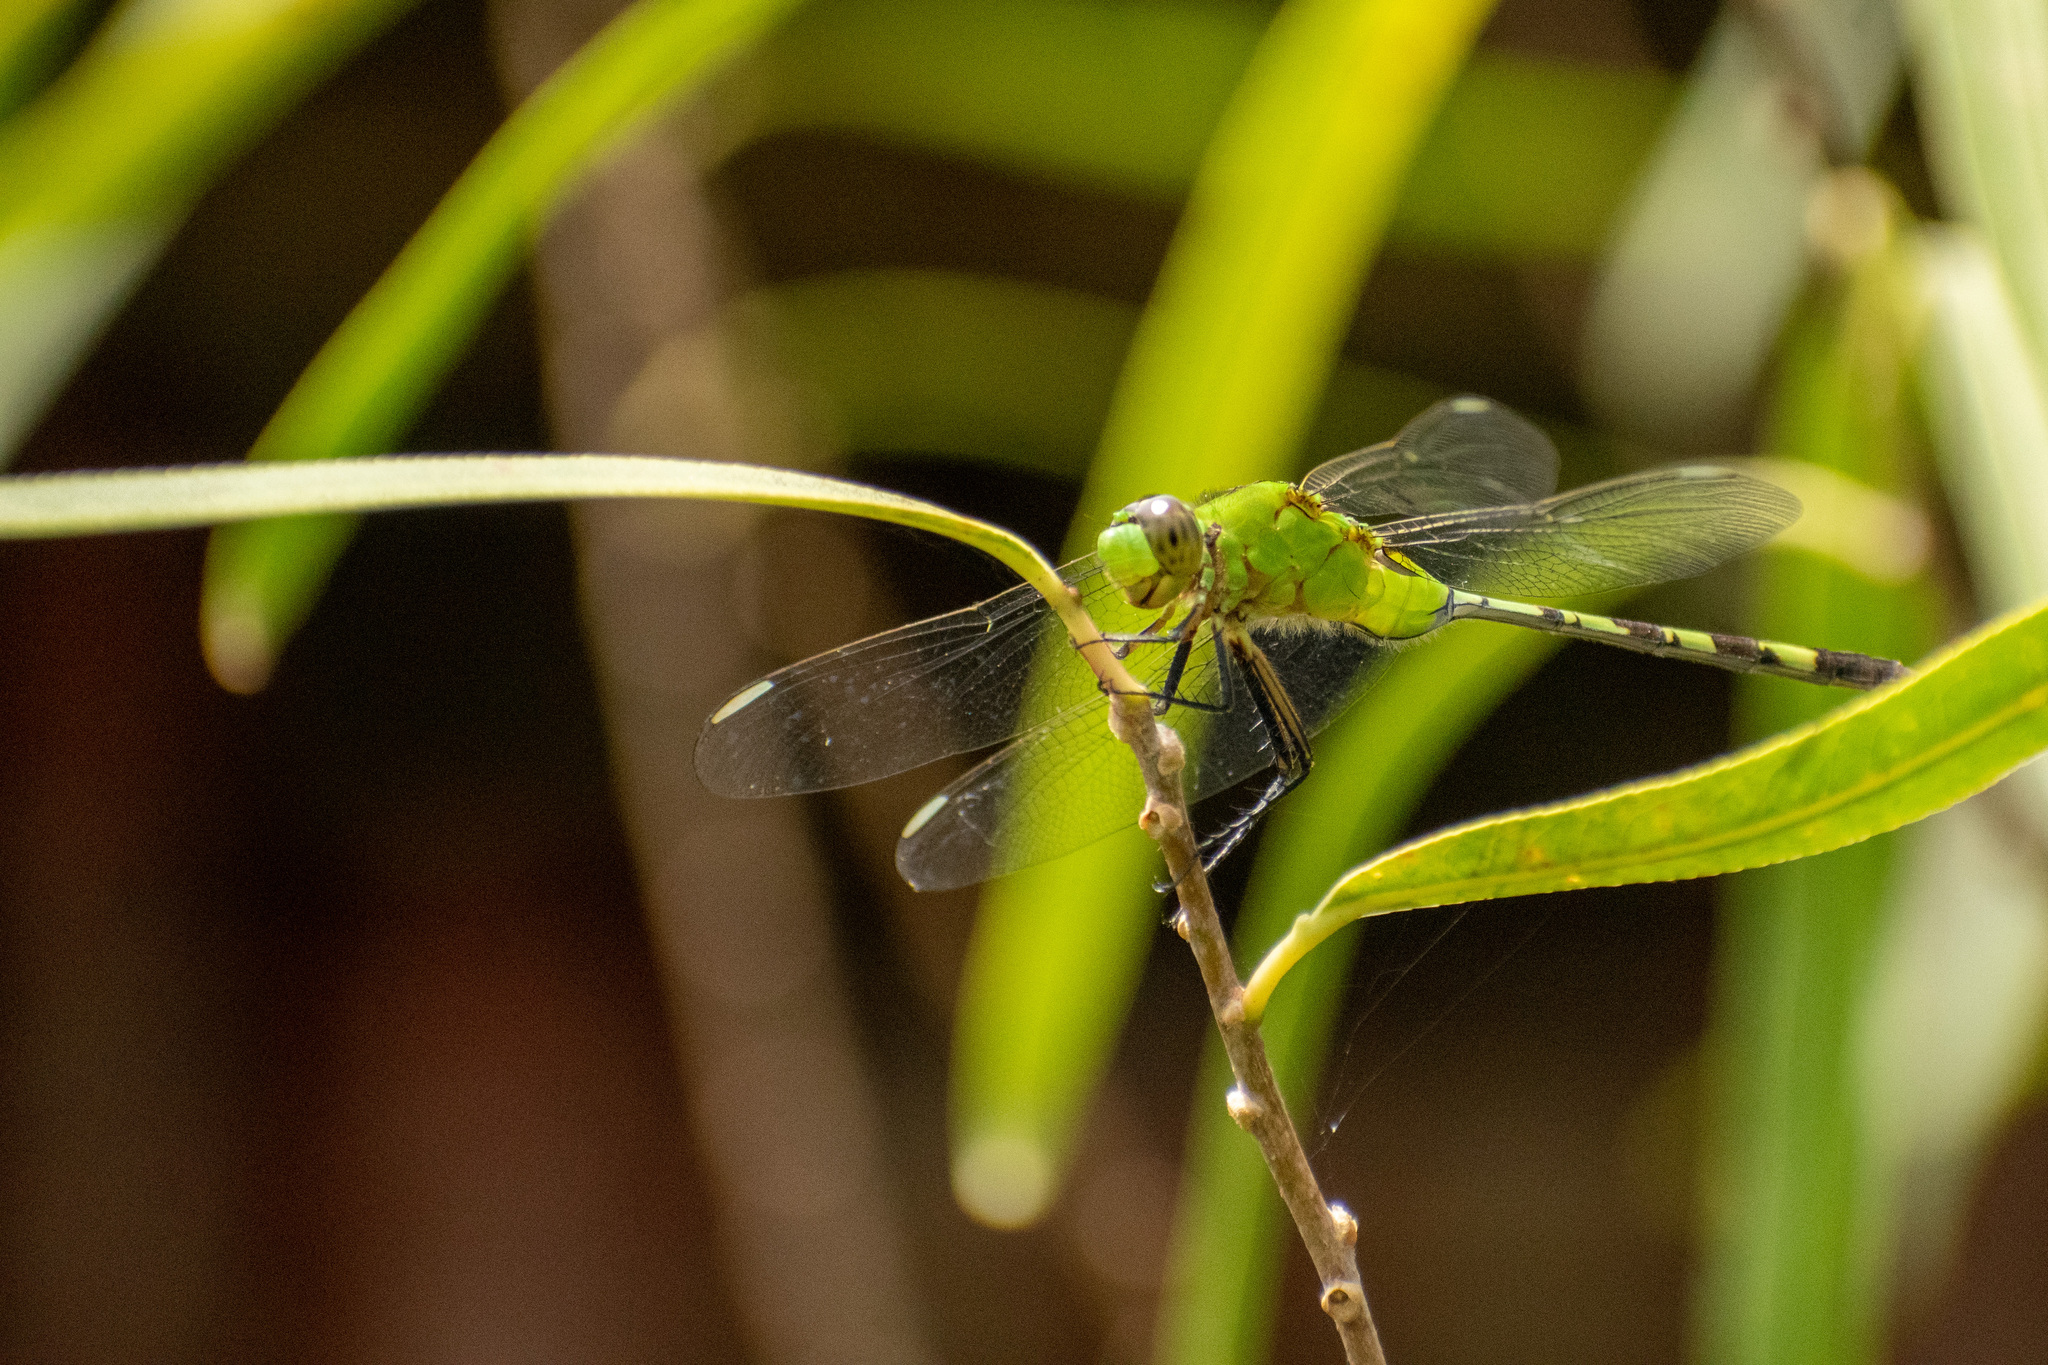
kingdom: Animalia
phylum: Arthropoda
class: Insecta
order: Odonata
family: Libellulidae
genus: Erythemis
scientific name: Erythemis vesiculosa
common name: Great pondhawk
